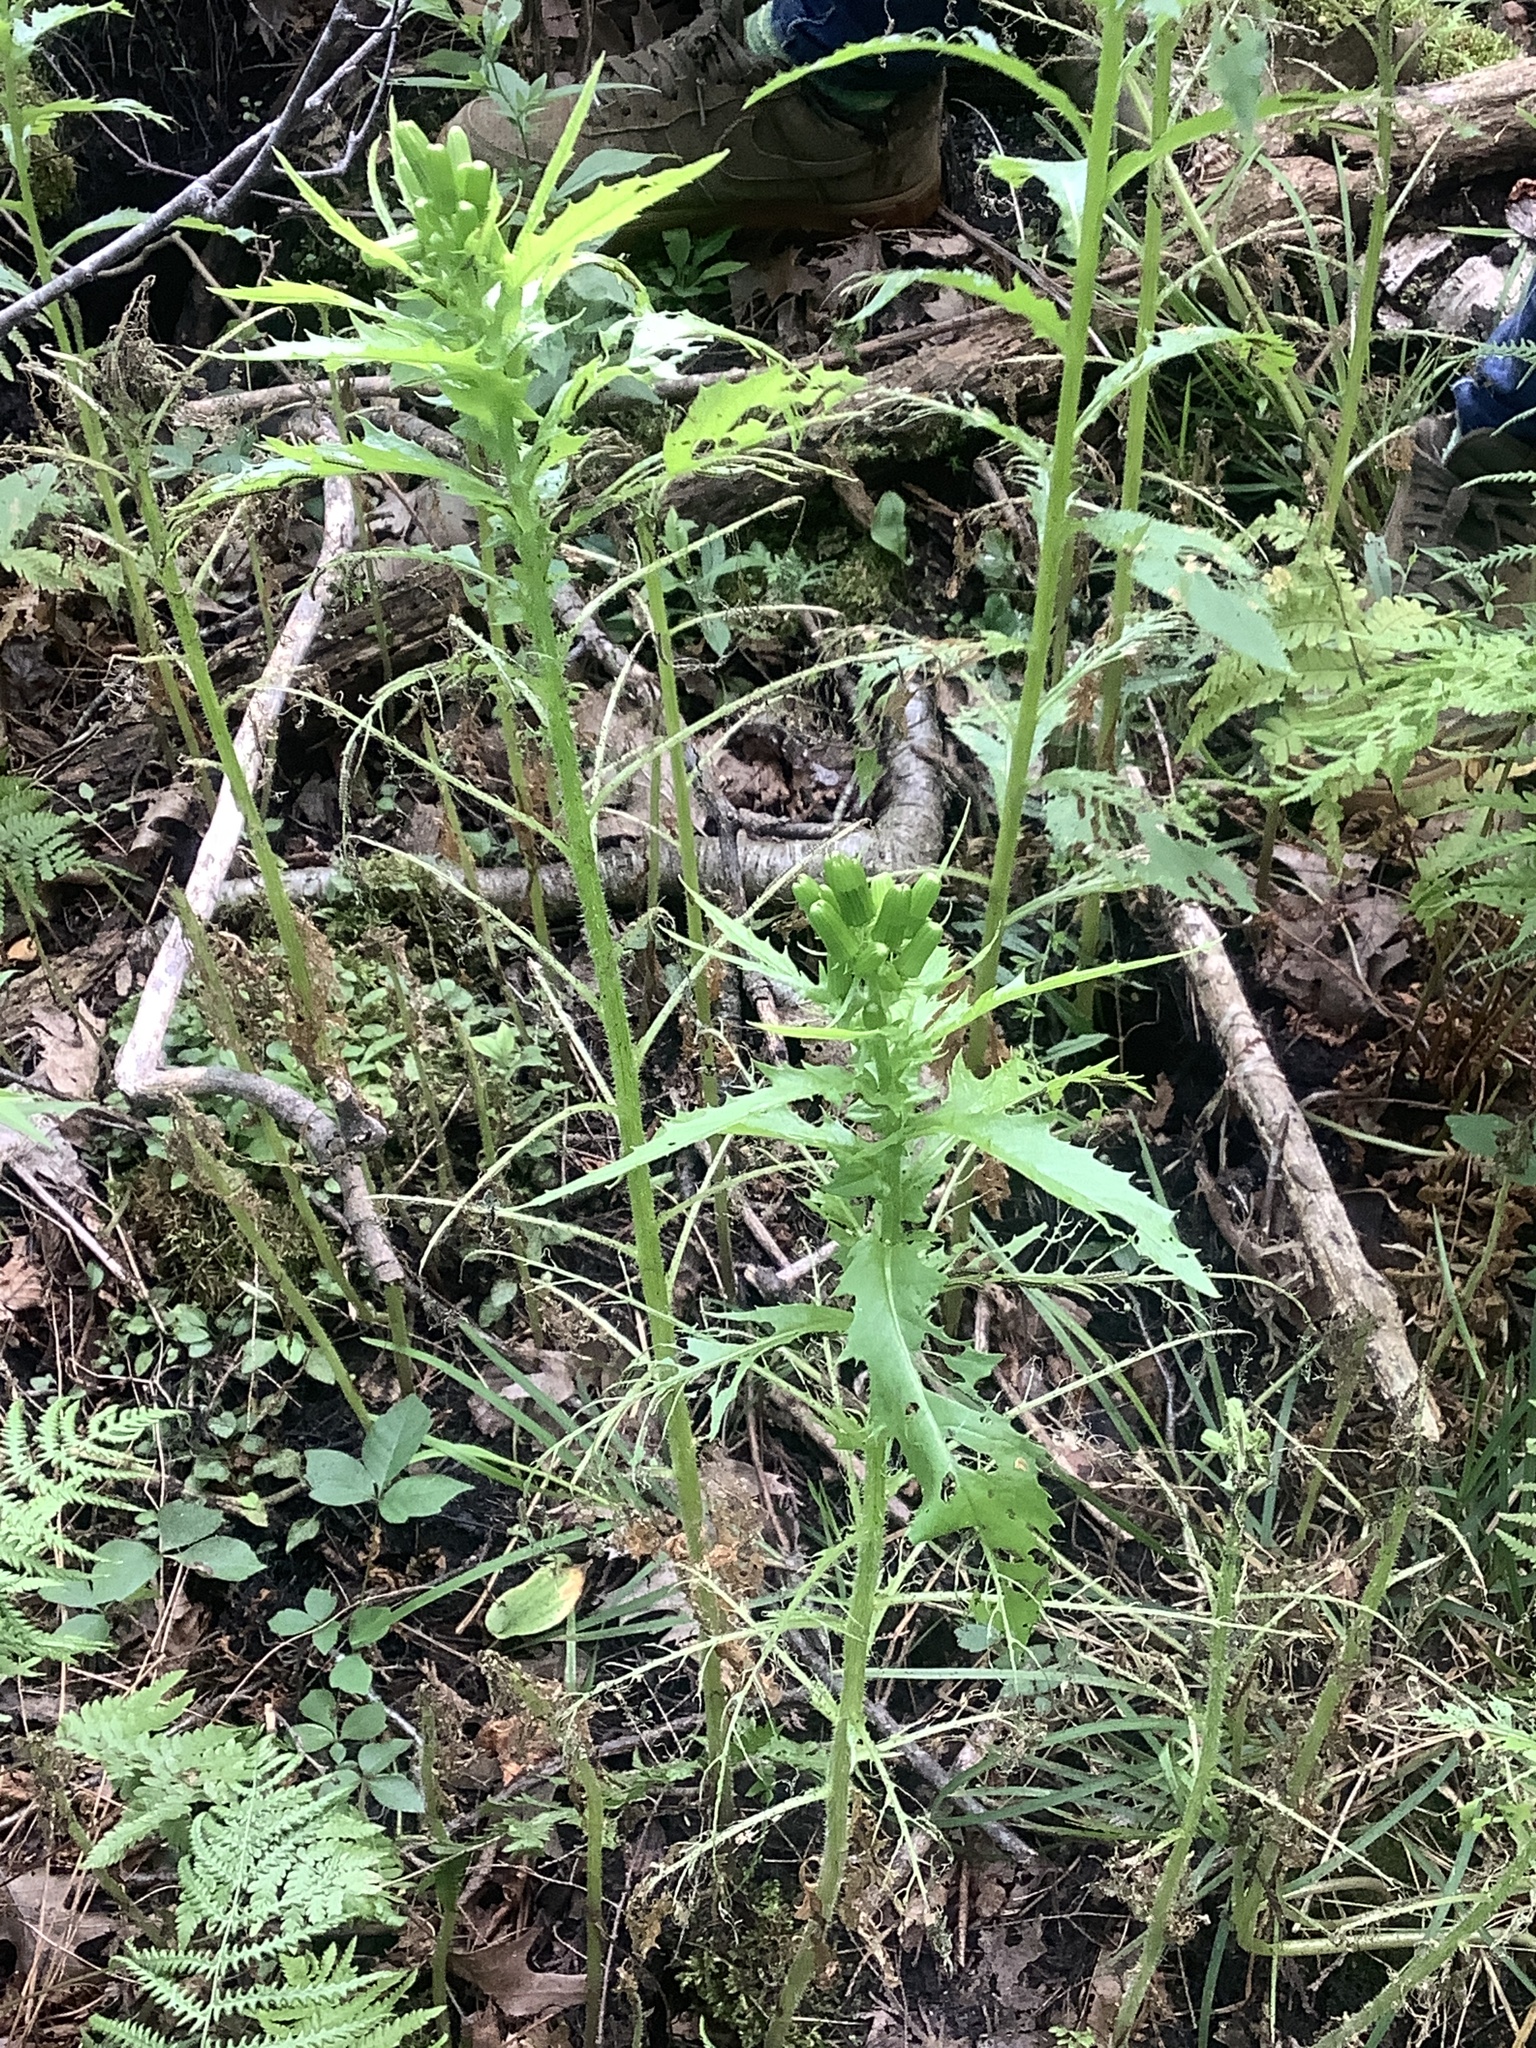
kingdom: Plantae
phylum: Tracheophyta
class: Magnoliopsida
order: Asterales
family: Asteraceae
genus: Erechtites
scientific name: Erechtites hieraciifolius
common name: American burnweed
